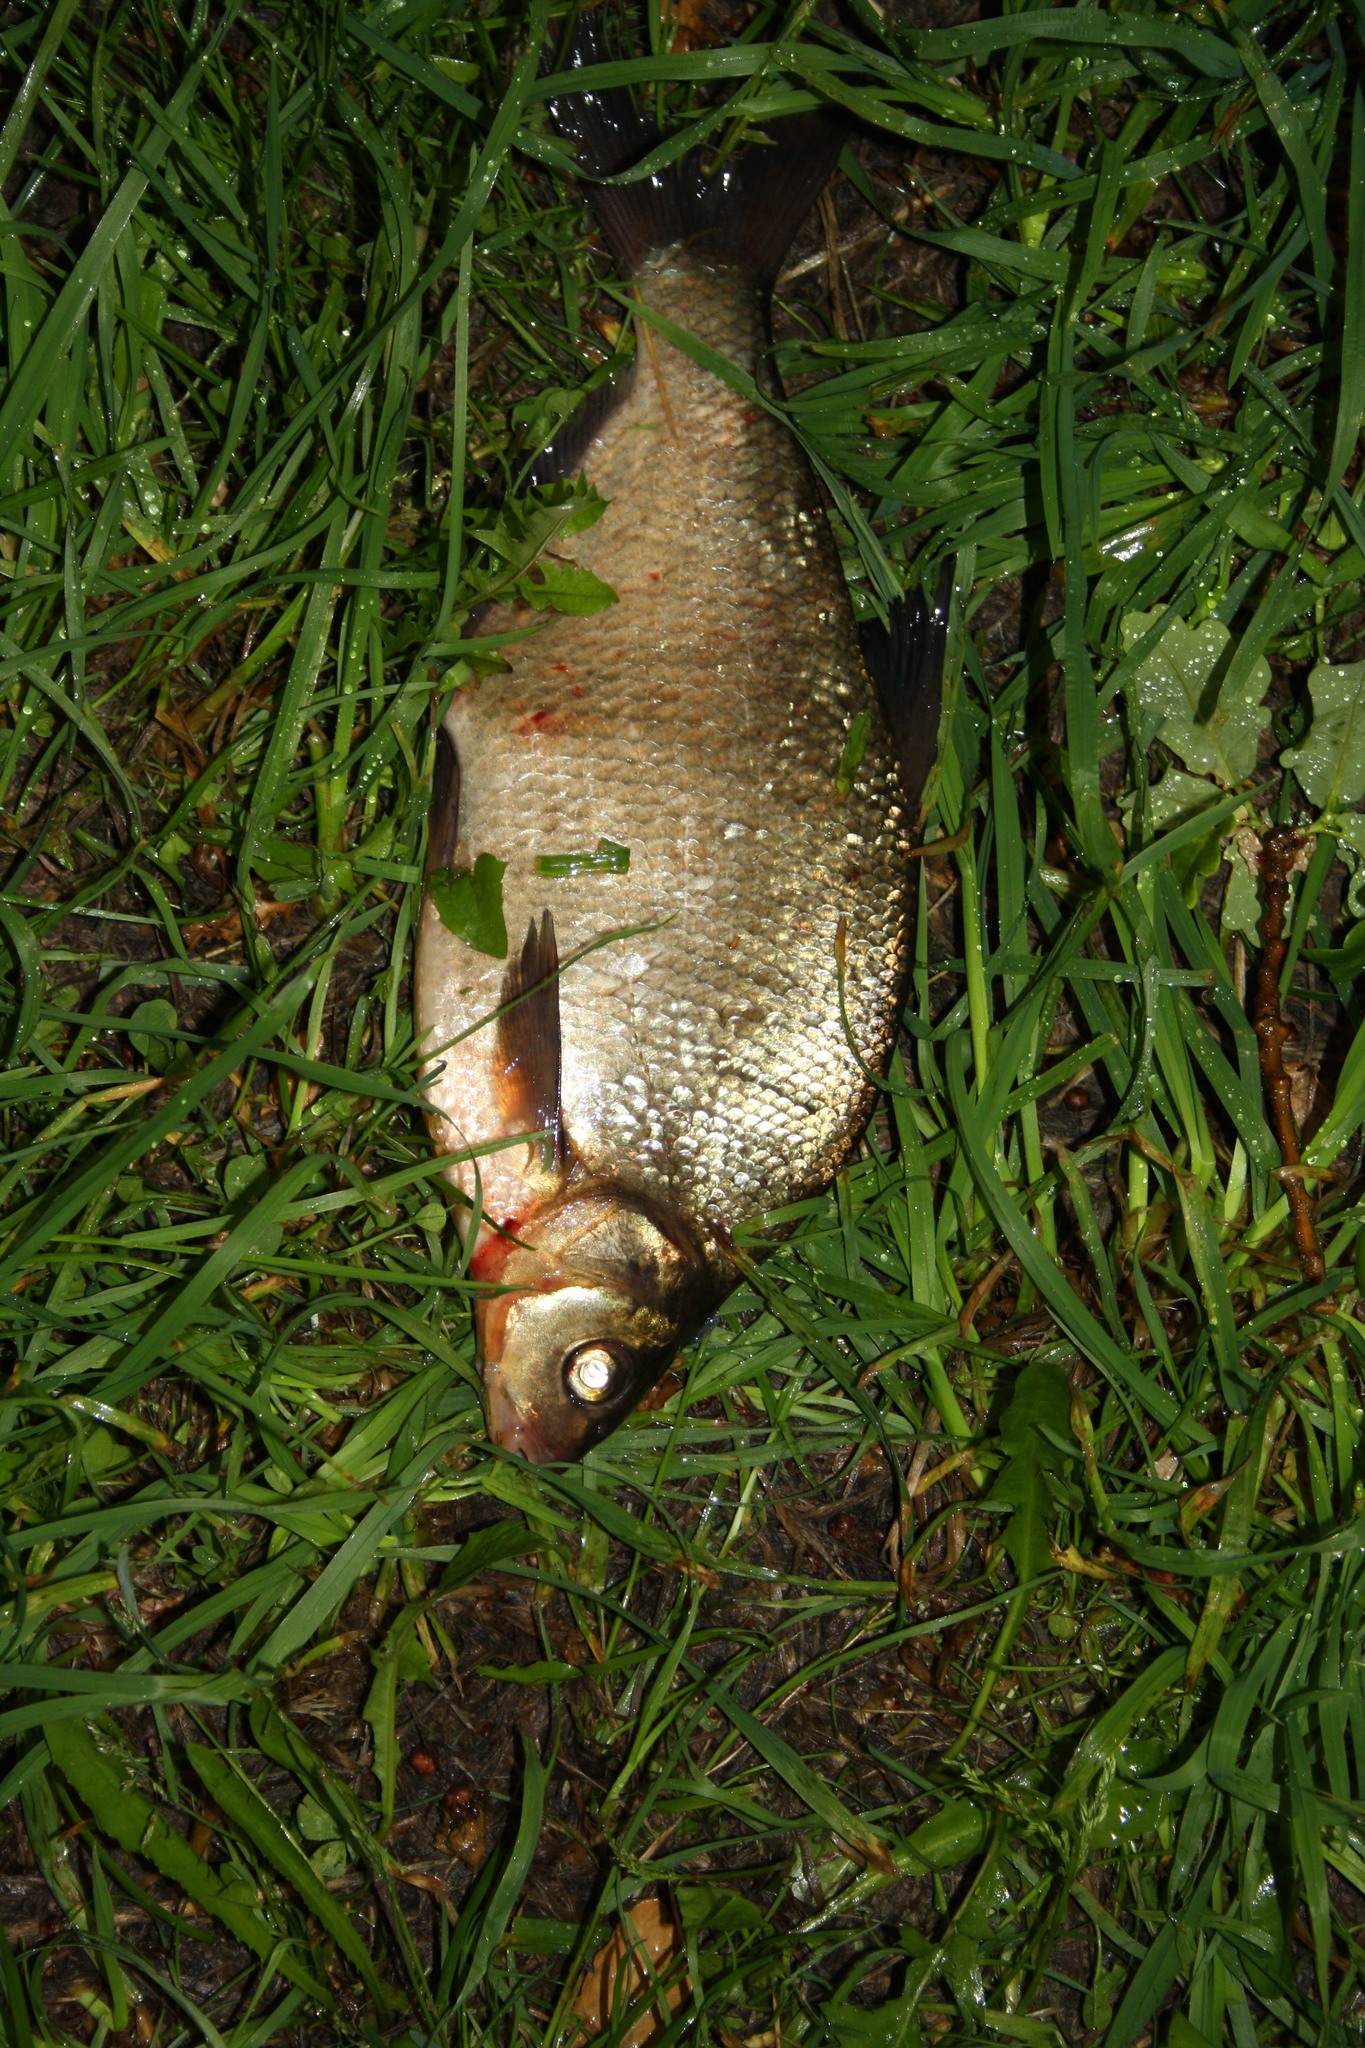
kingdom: Animalia
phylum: Chordata
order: Cypriniformes
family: Cyprinidae
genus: Abramis
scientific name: Abramis brama
